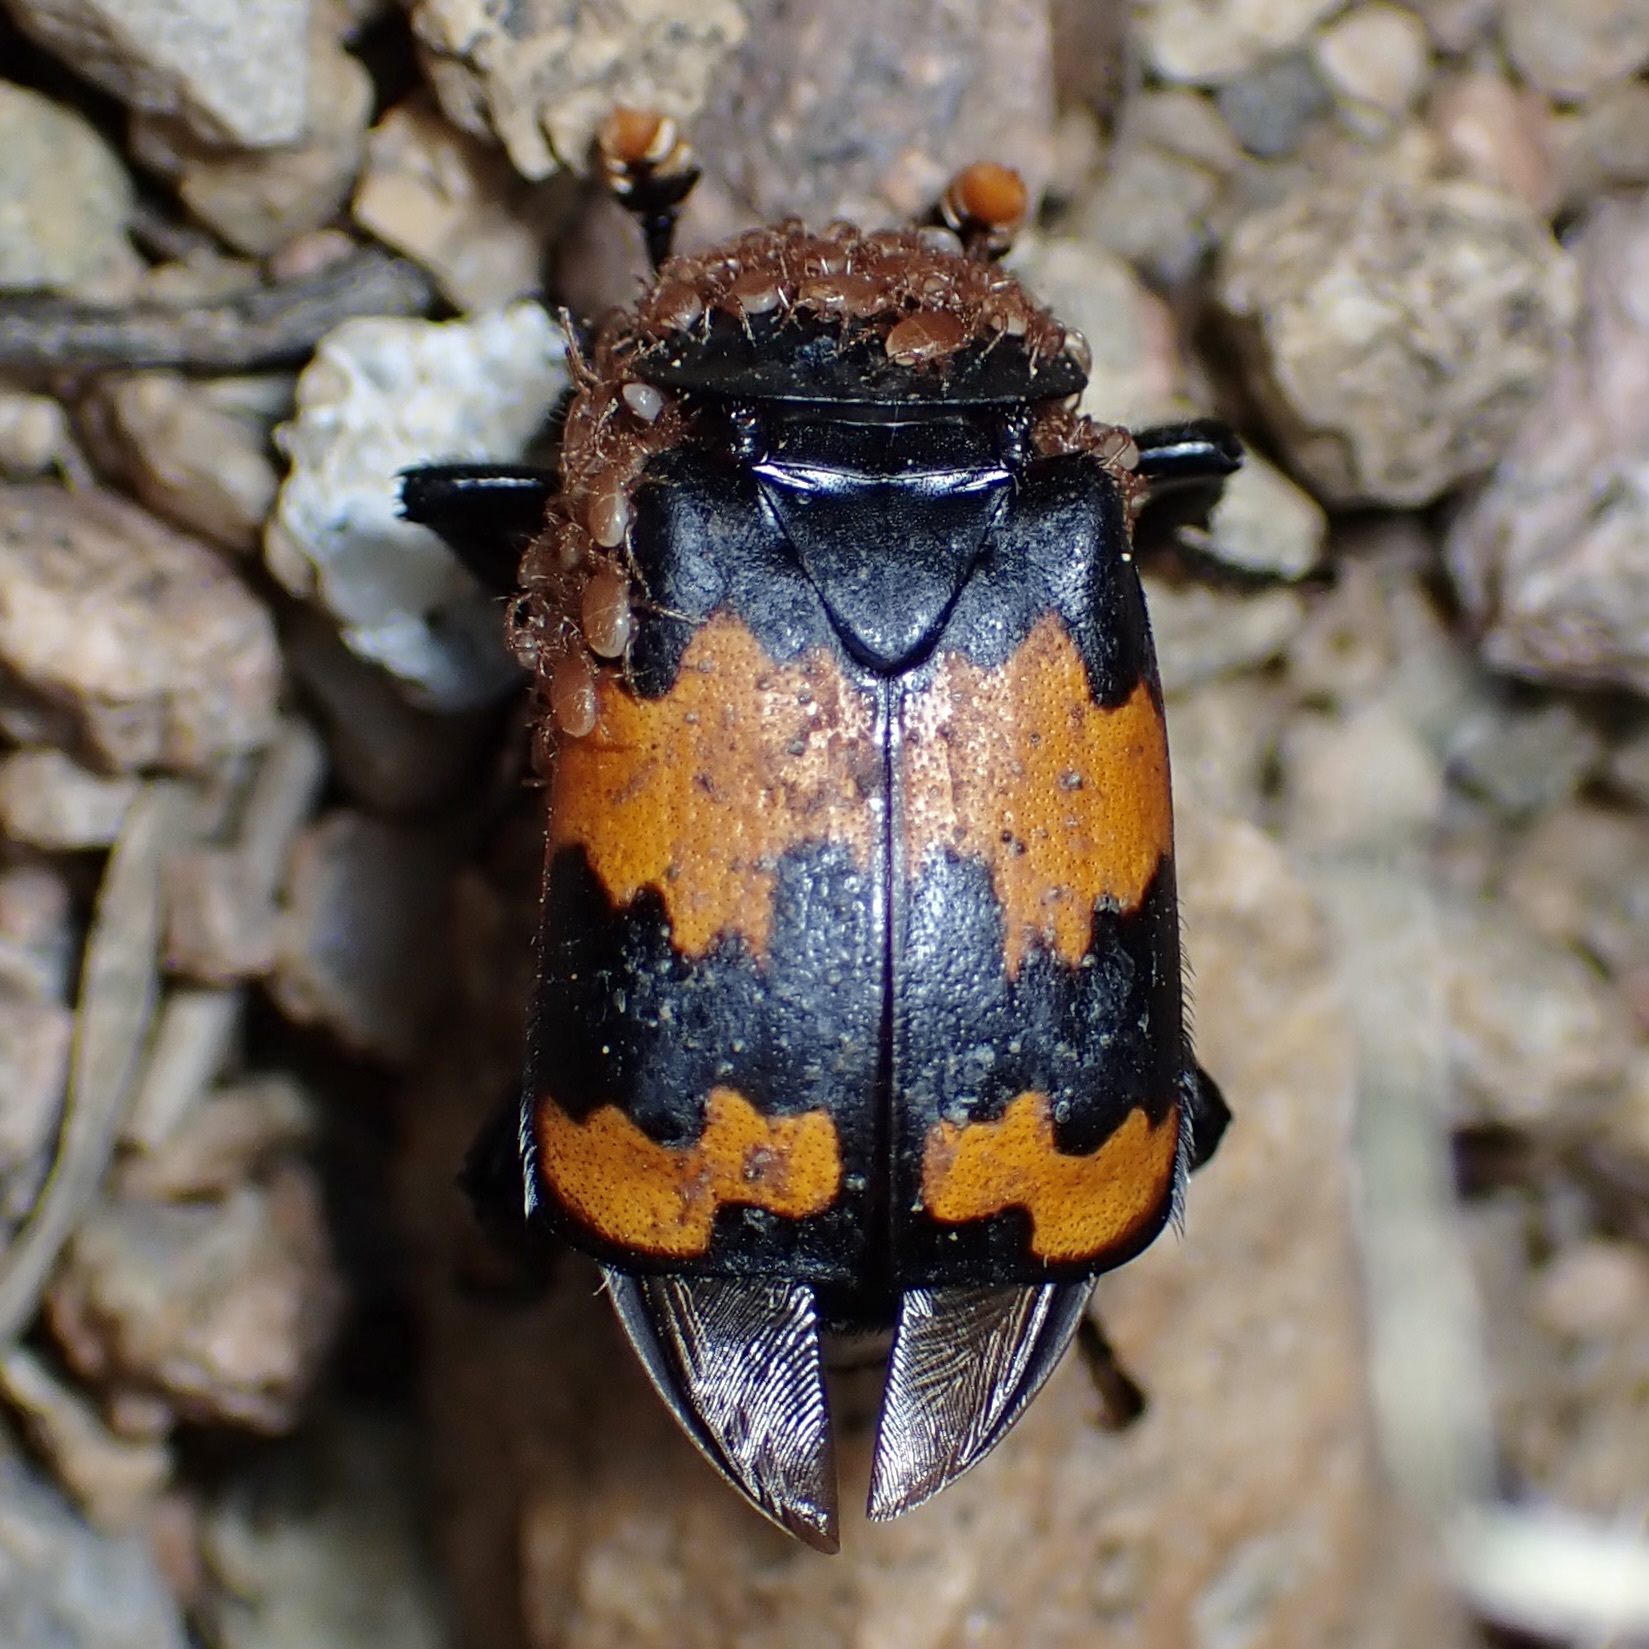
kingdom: Animalia
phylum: Arthropoda
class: Insecta
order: Coleoptera
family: Staphylinidae
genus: Nicrophorus
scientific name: Nicrophorus mexicanus
